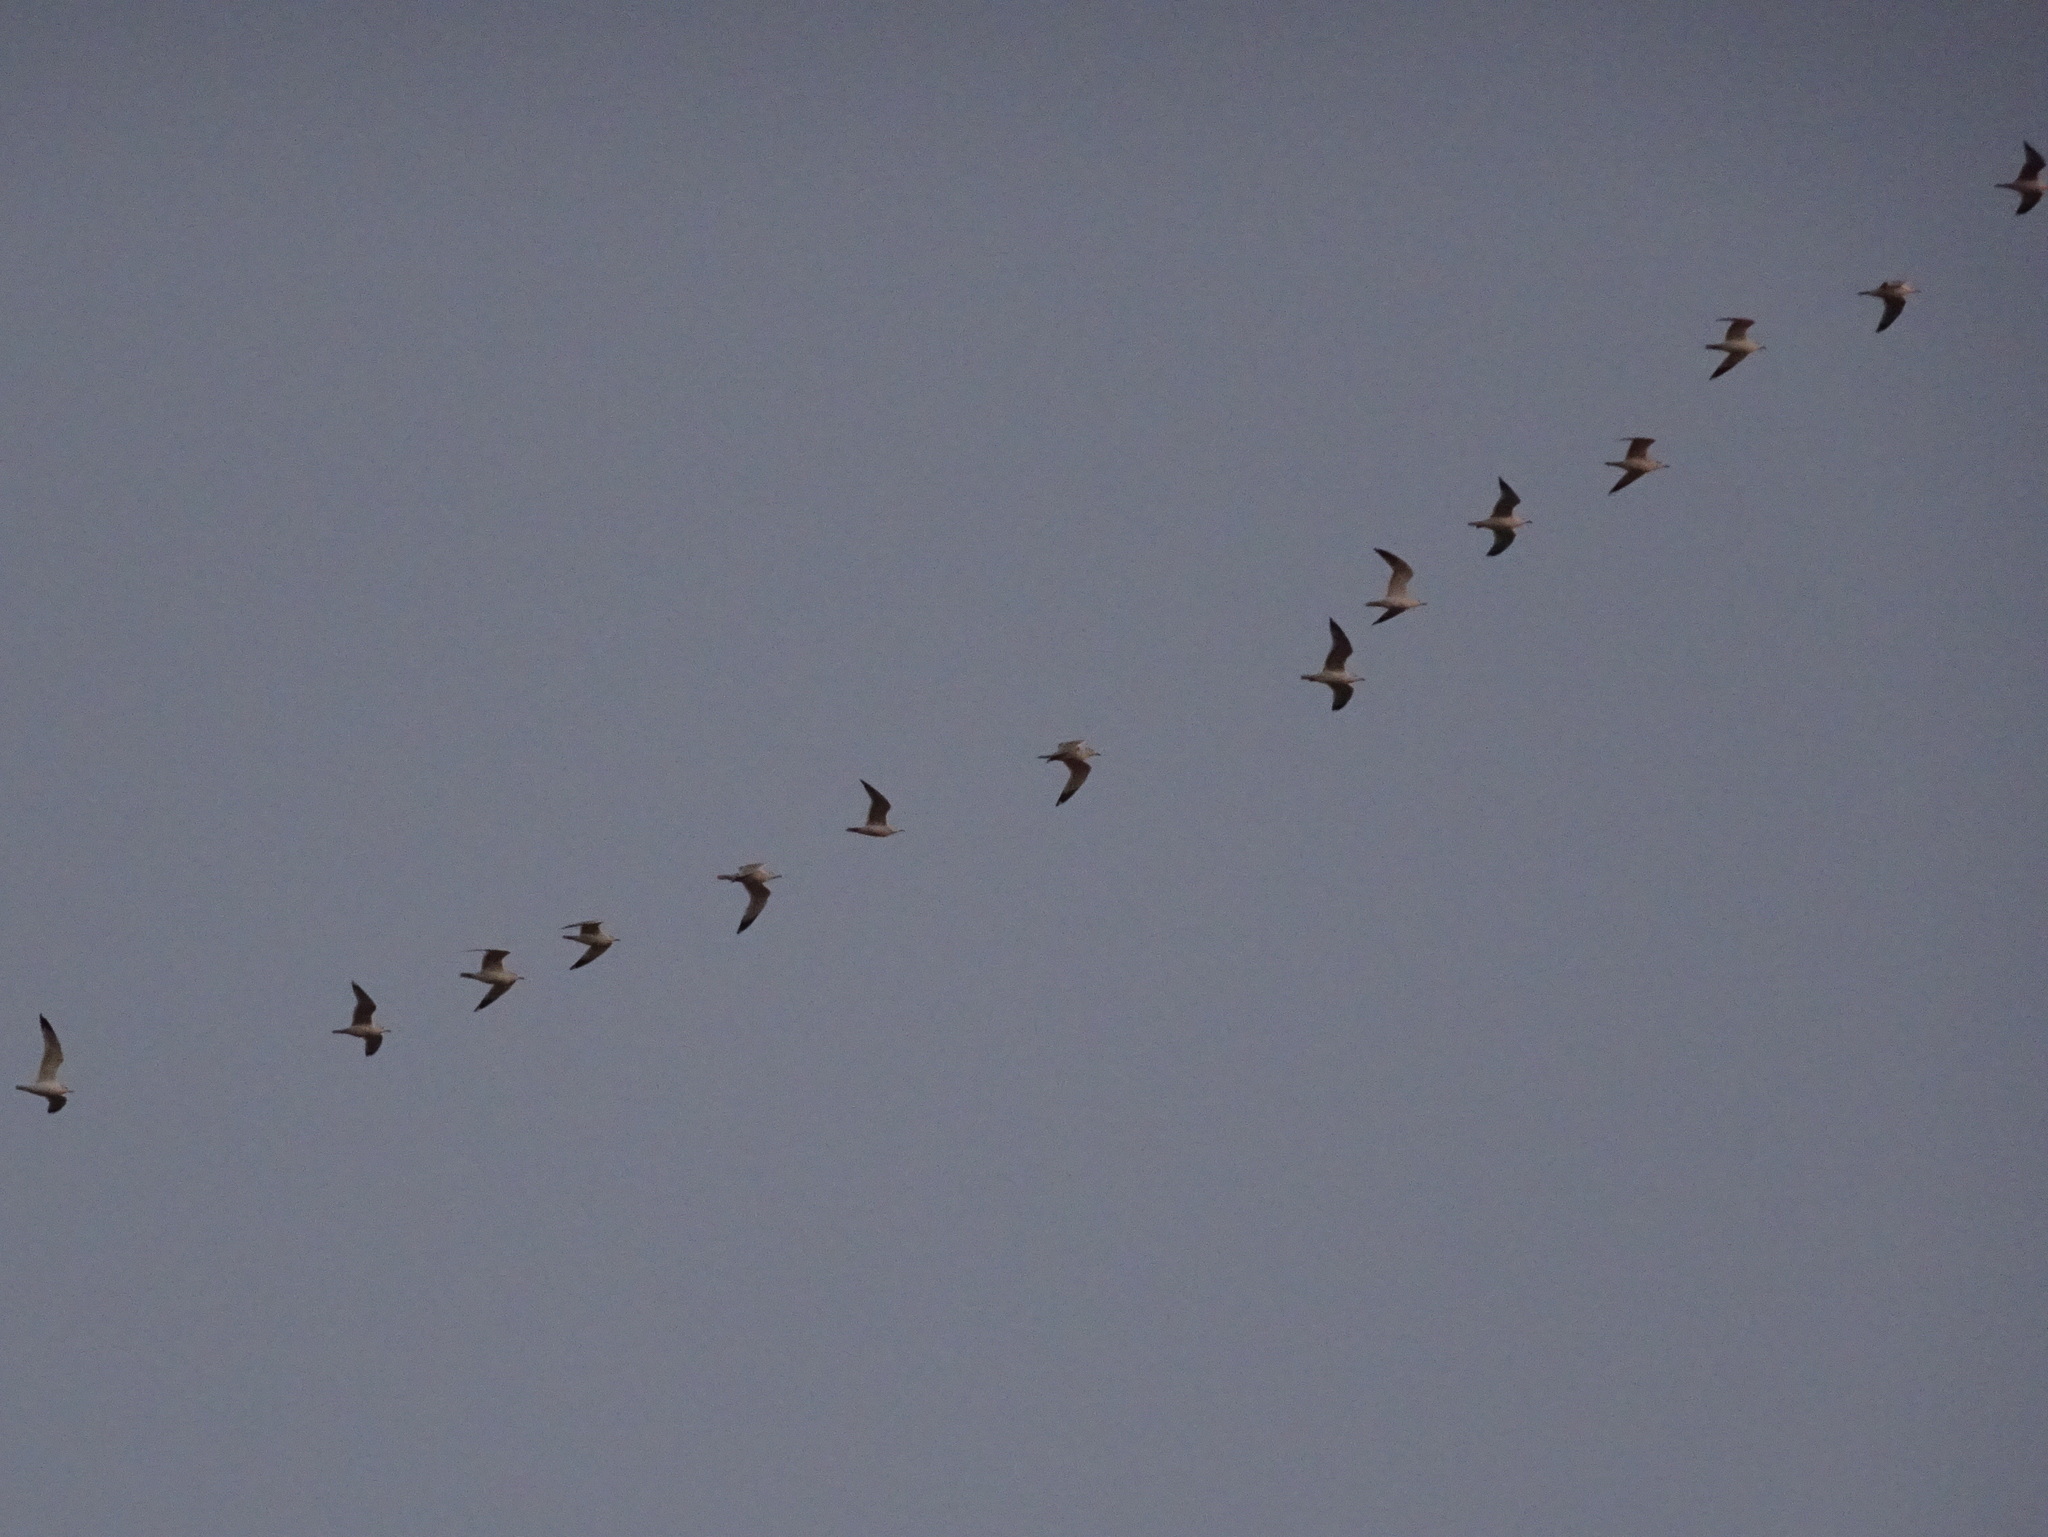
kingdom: Animalia
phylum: Chordata
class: Aves
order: Charadriiformes
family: Laridae
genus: Larus
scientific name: Larus delawarensis
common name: Ring-billed gull
